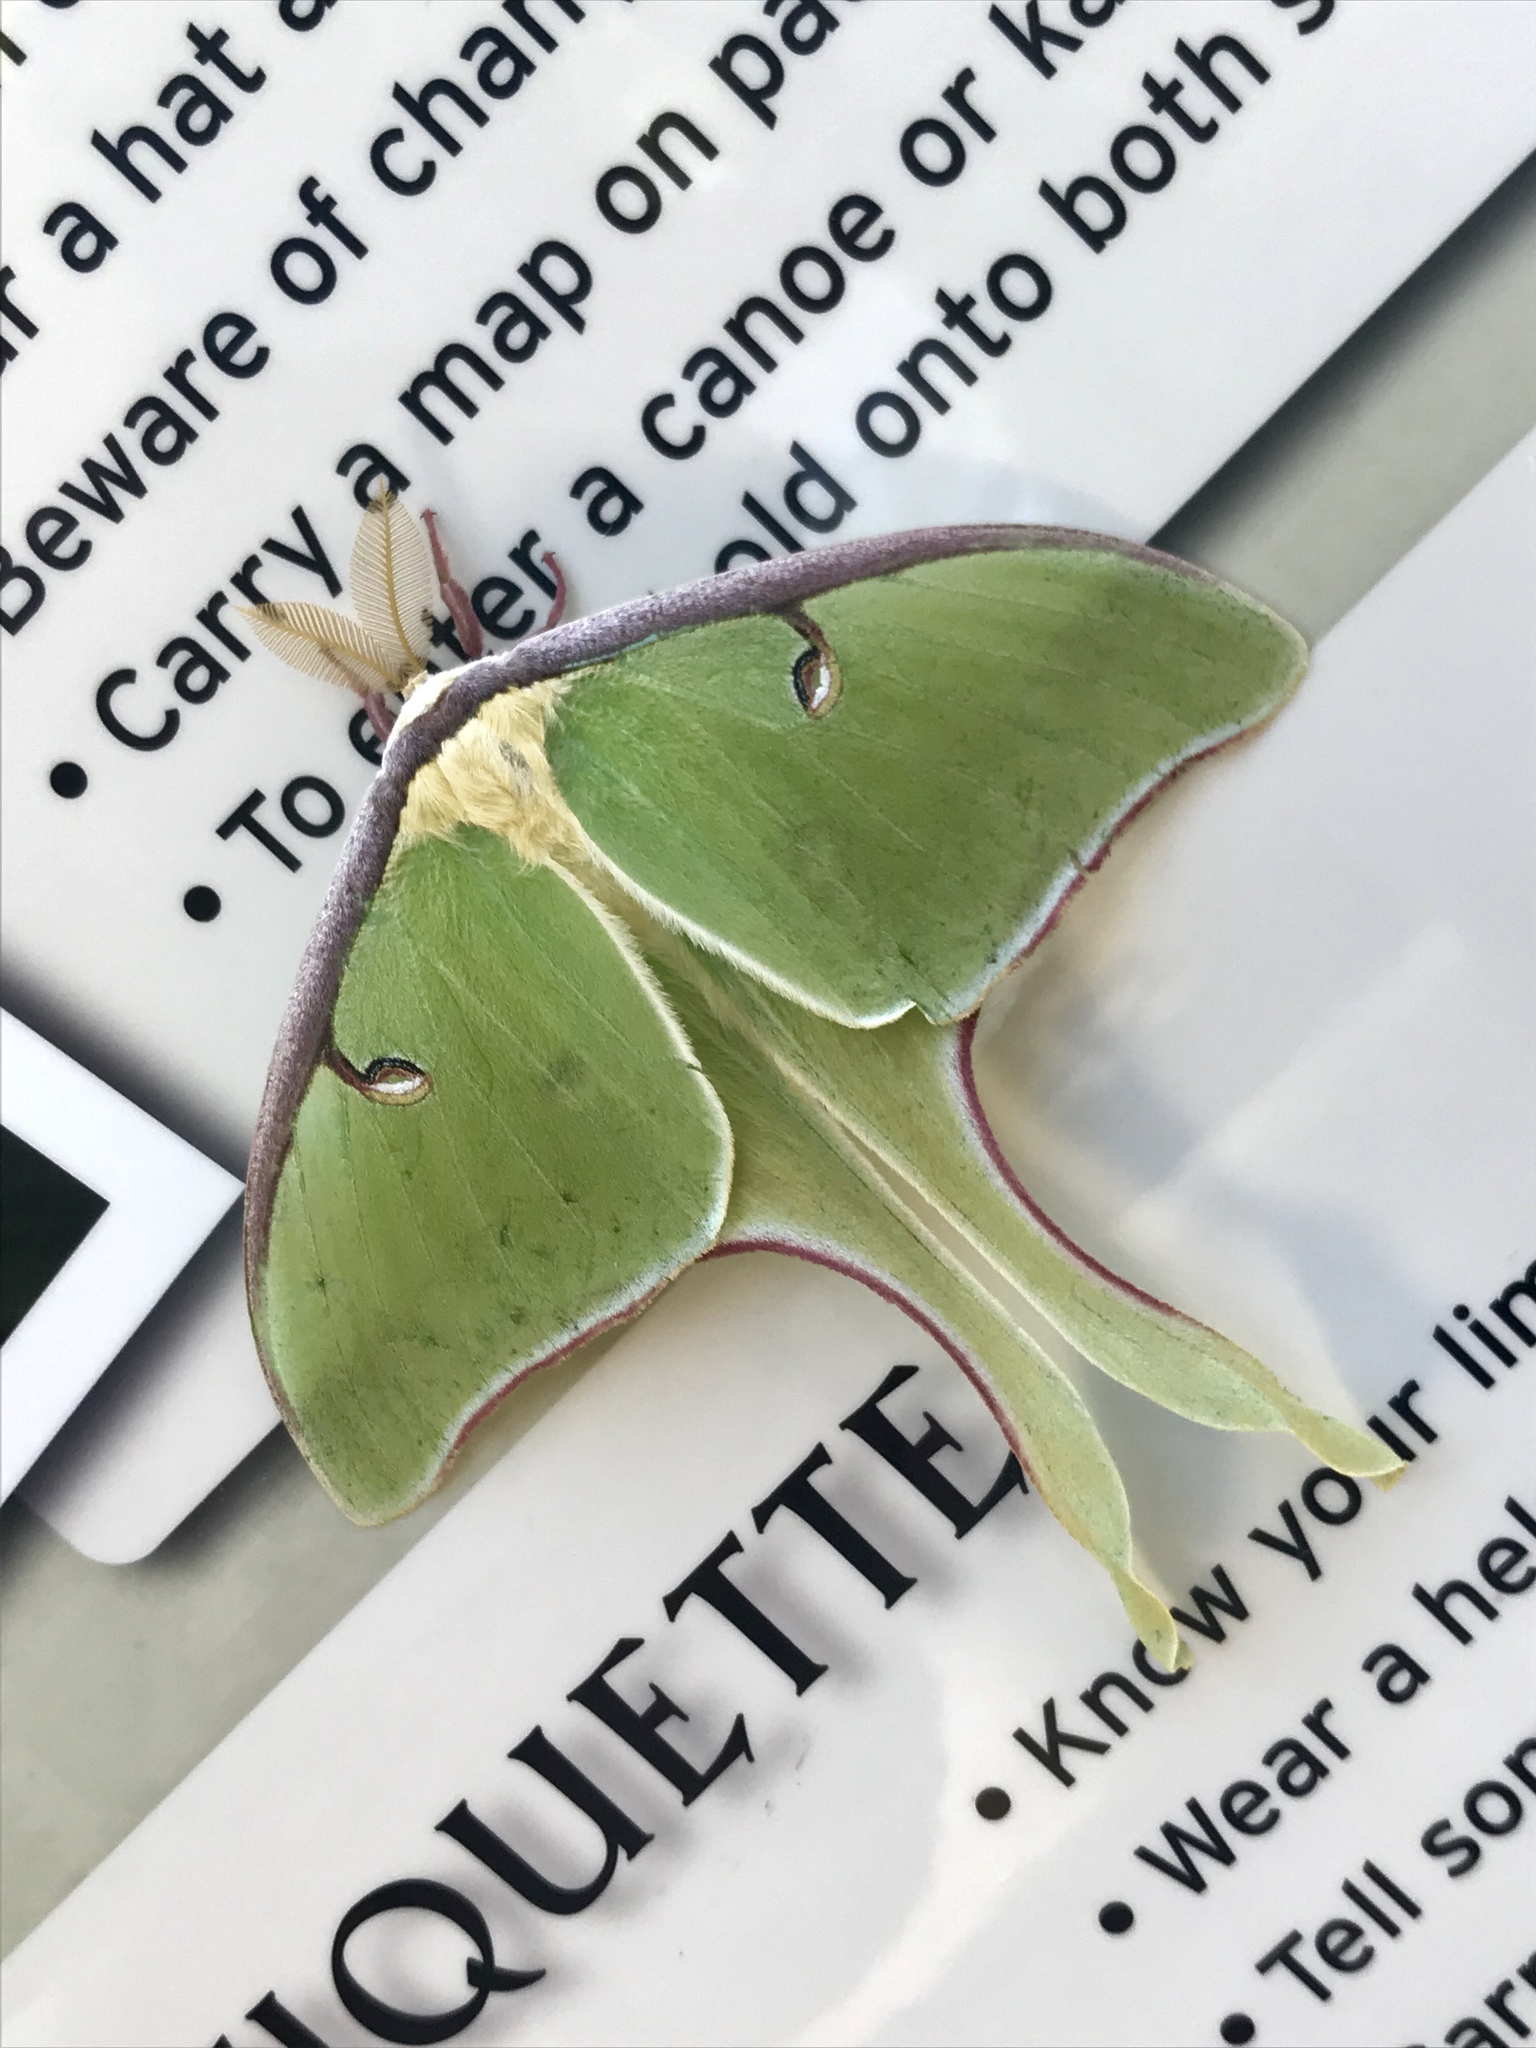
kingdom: Animalia
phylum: Arthropoda
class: Insecta
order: Lepidoptera
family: Saturniidae
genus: Actias
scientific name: Actias luna
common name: Luna moth
